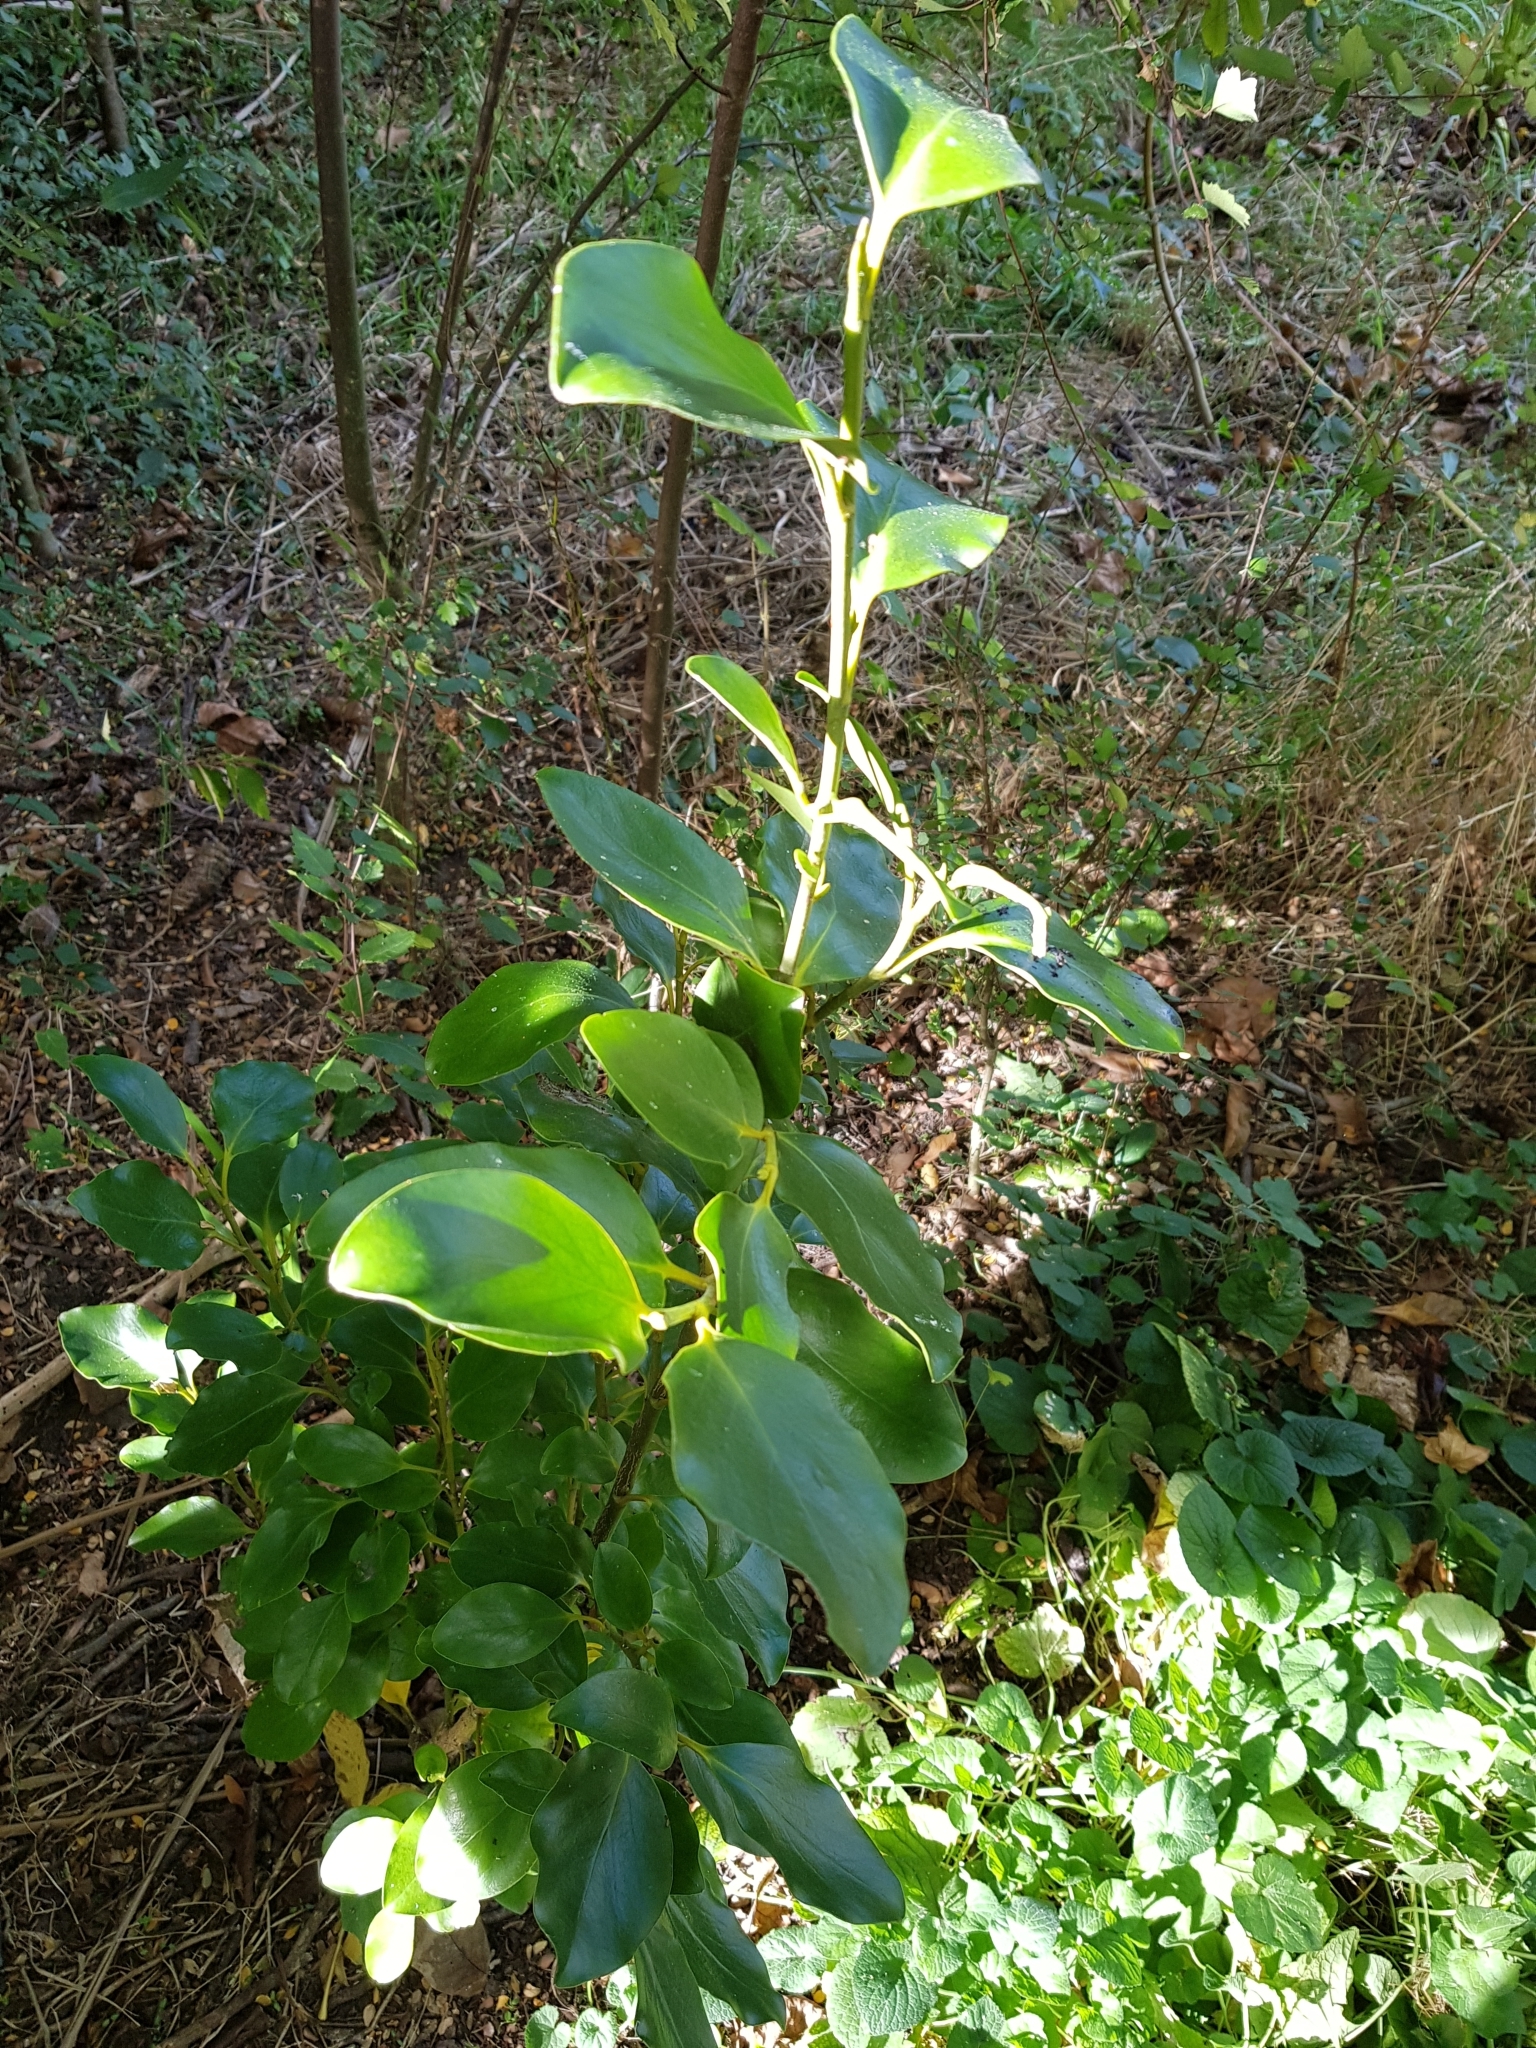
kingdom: Plantae
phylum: Tracheophyta
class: Magnoliopsida
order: Apiales
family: Griseliniaceae
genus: Griselinia
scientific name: Griselinia littoralis
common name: New zealand broadleaf
